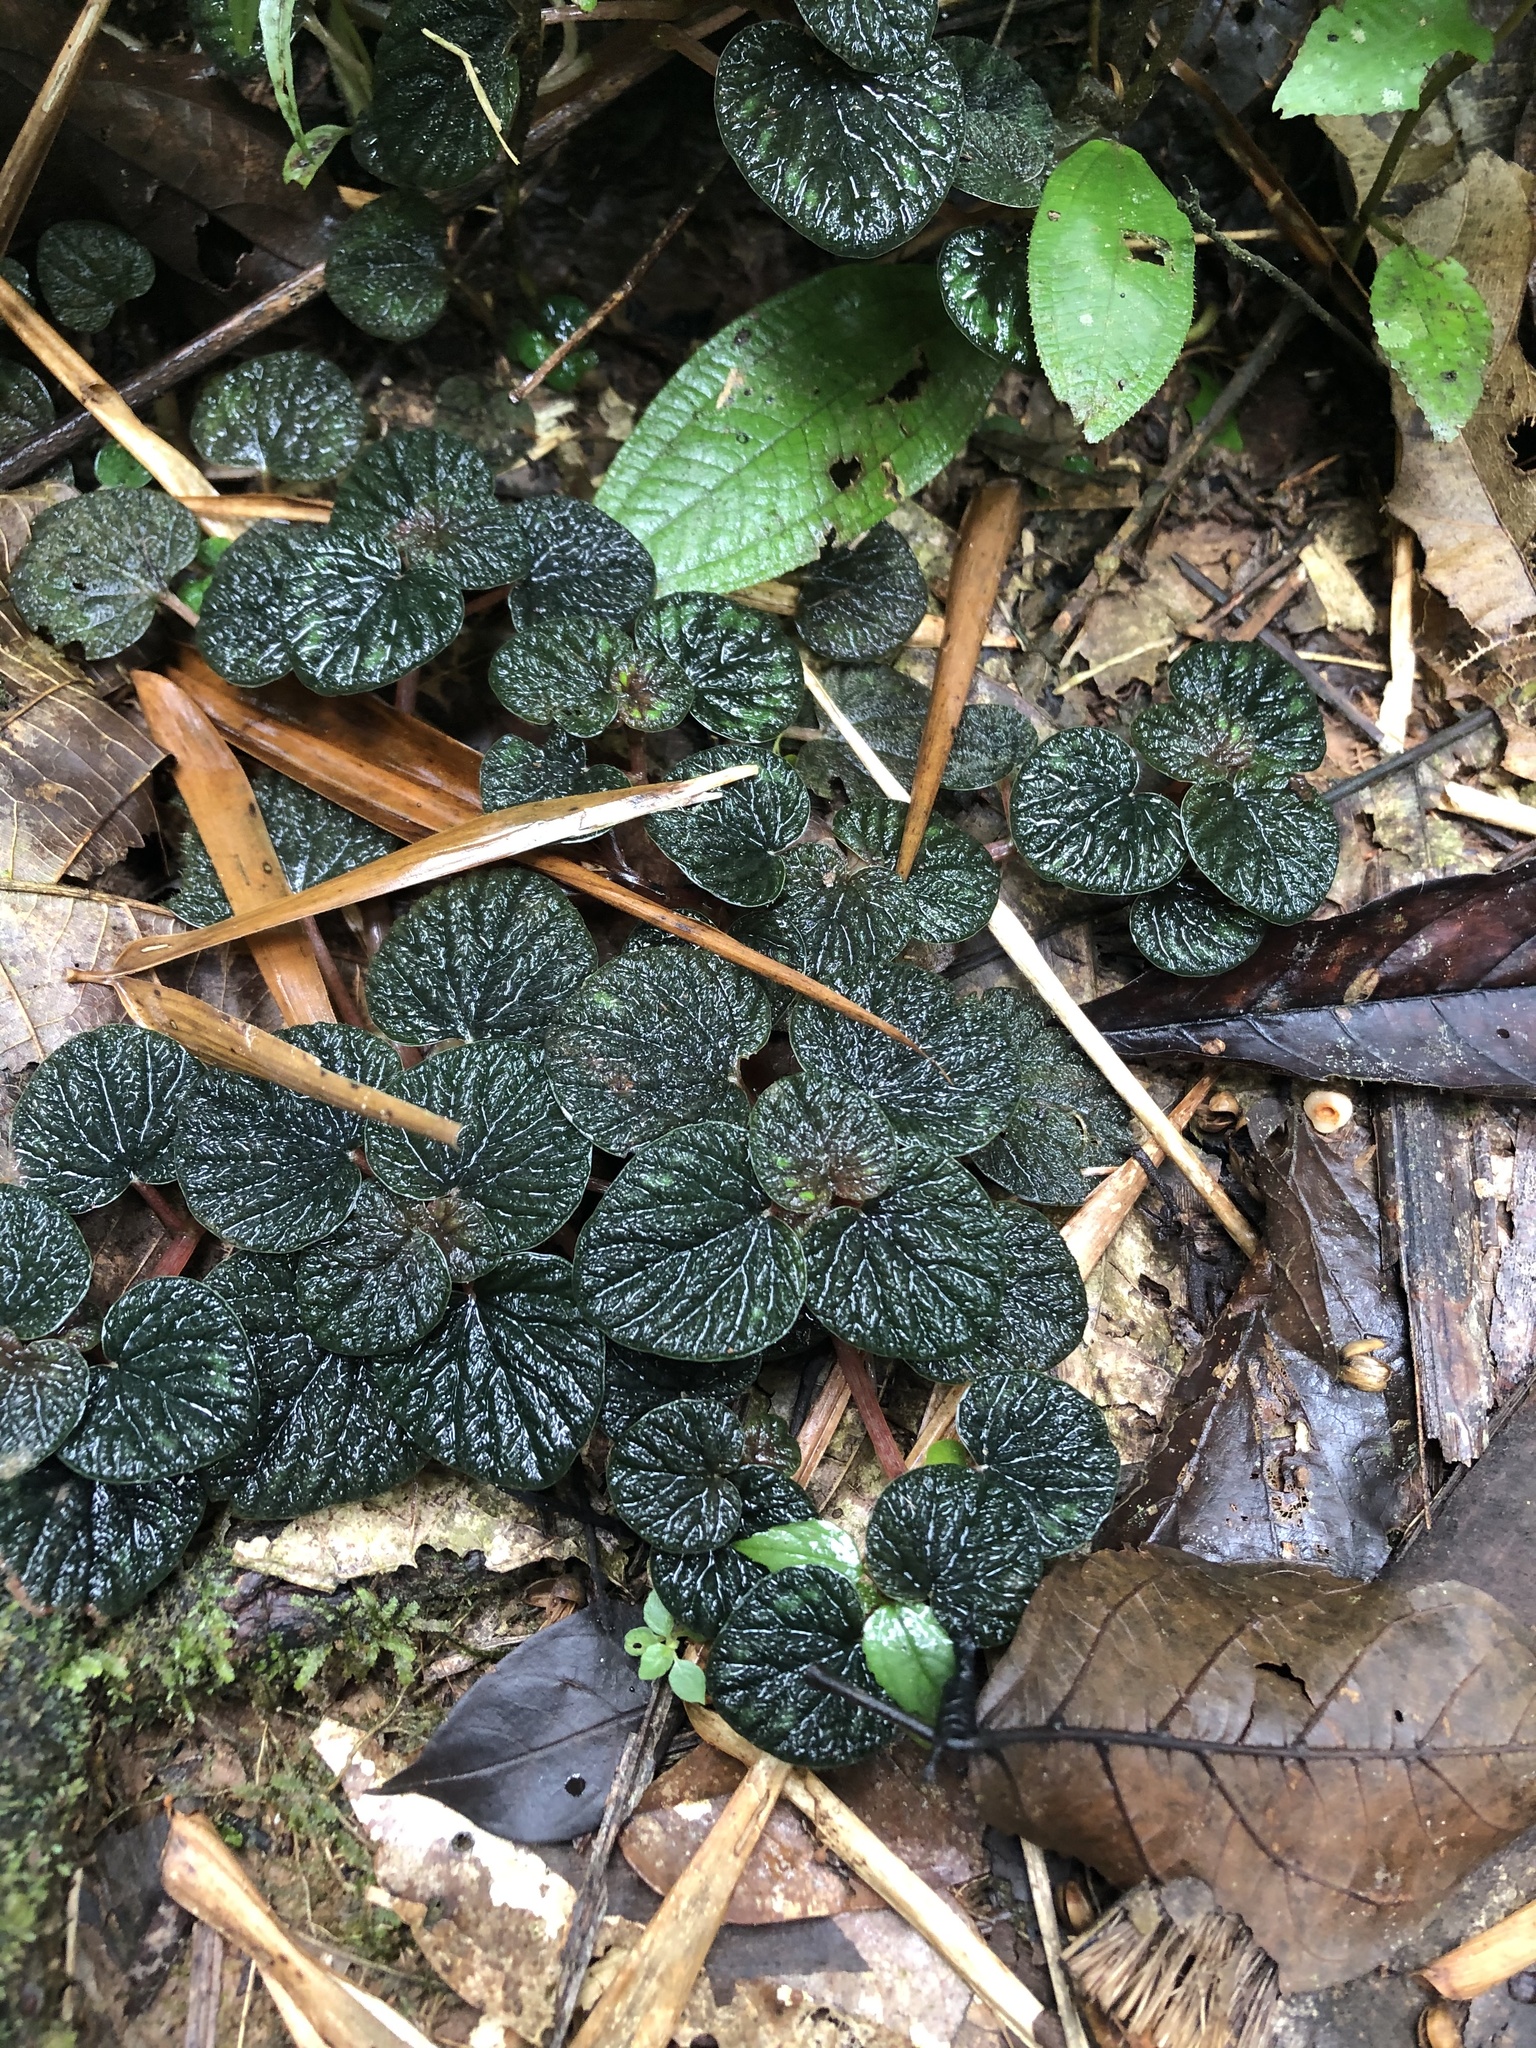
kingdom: Plantae
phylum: Tracheophyta
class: Magnoliopsida
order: Piperales
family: Piperaceae
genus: Peperomia
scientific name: Peperomia spruceana
